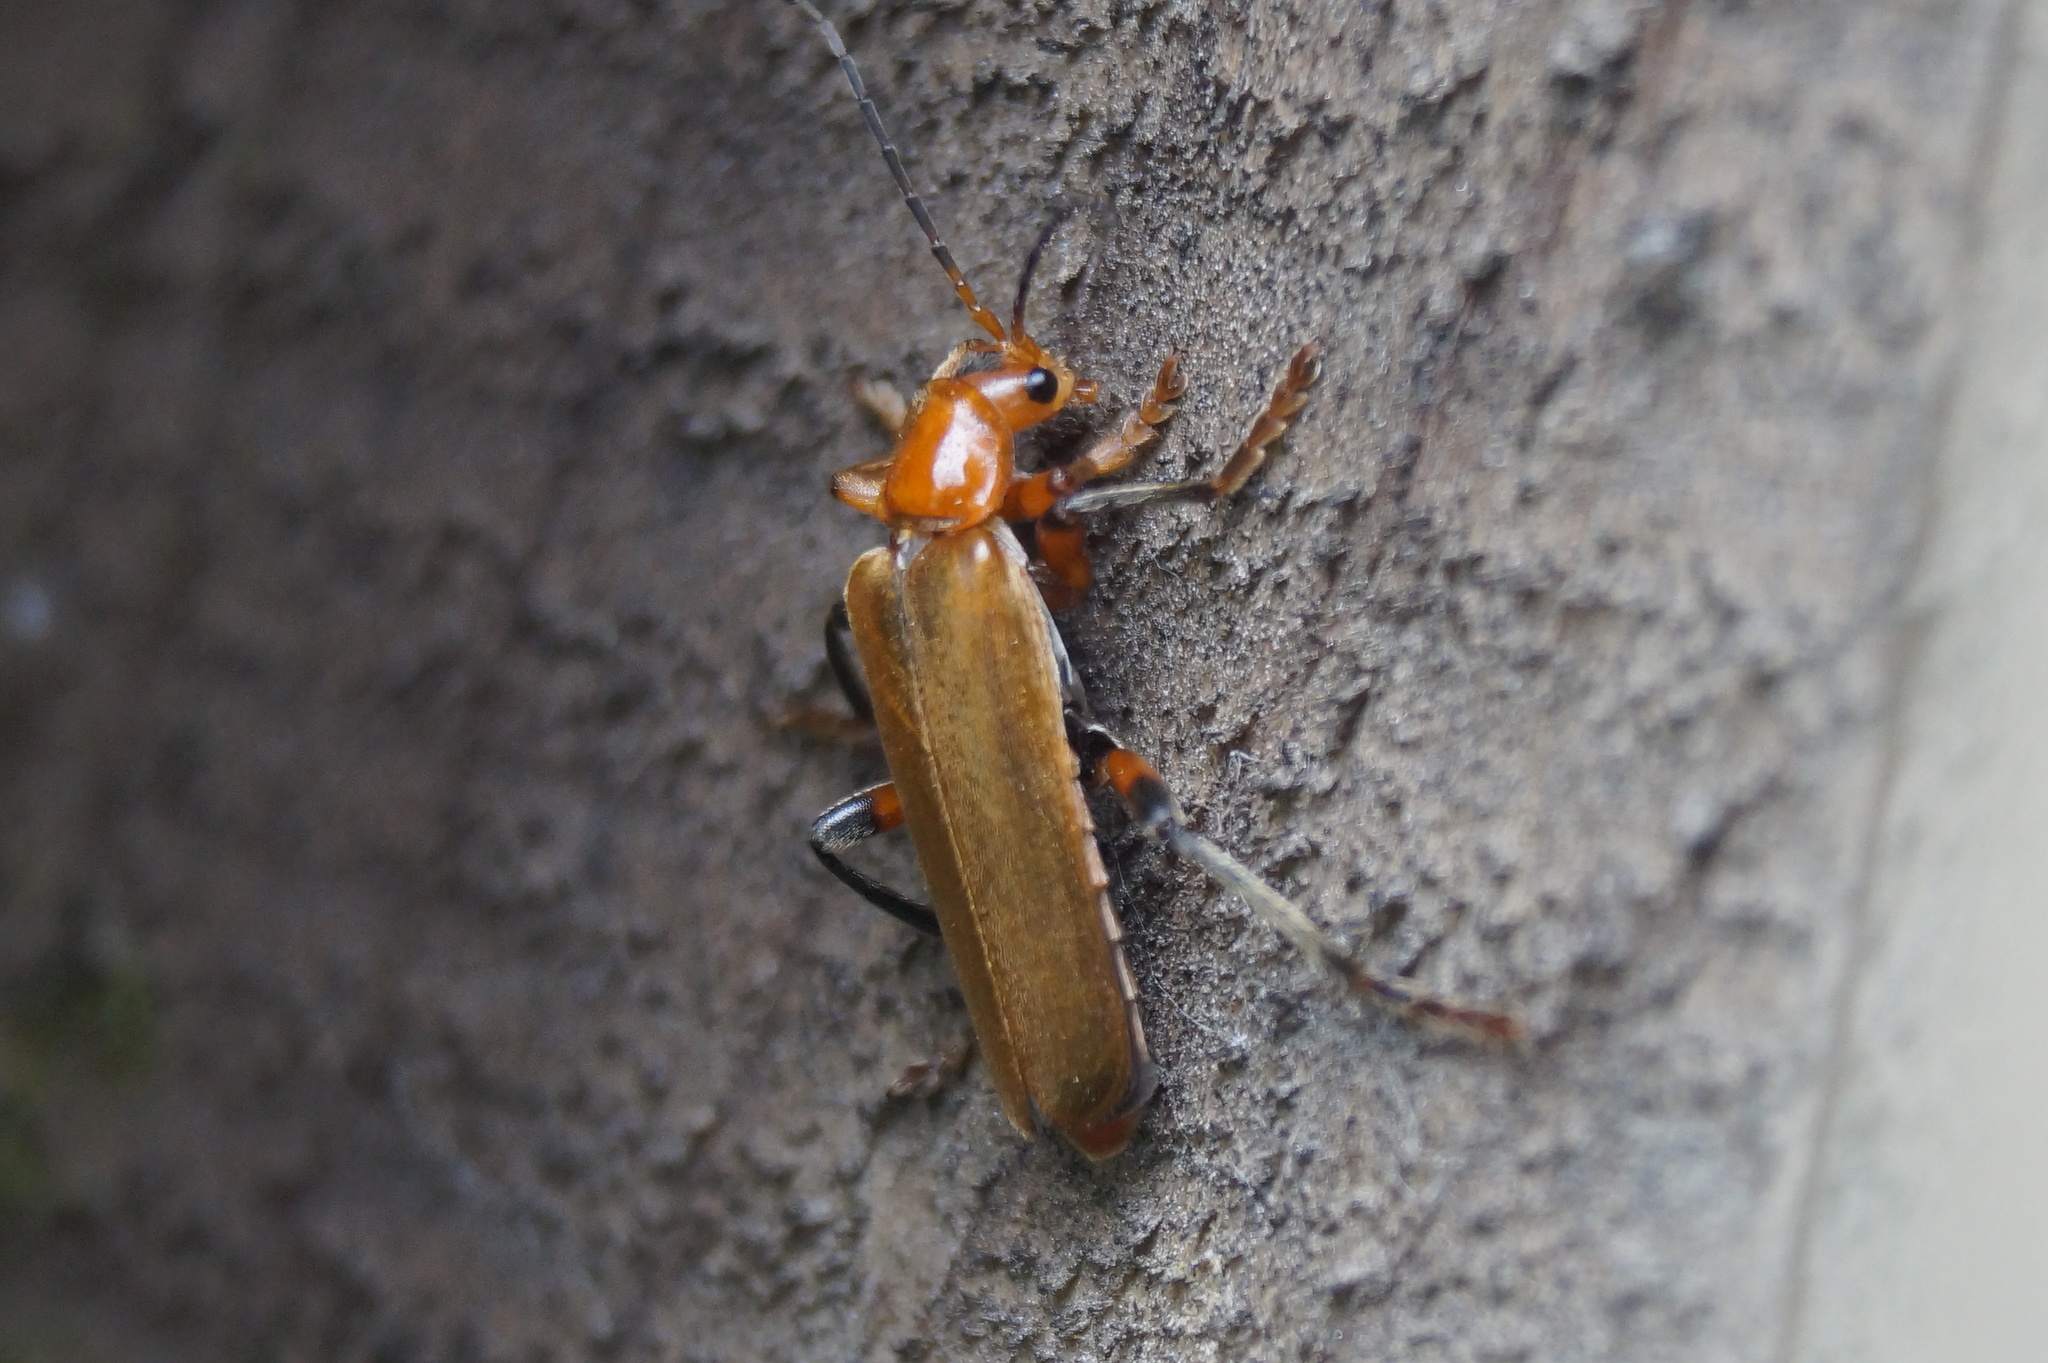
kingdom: Animalia
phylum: Arthropoda
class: Insecta
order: Coleoptera
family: Cantharidae
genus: Cantharis
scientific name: Cantharis livida
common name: Livid soldier beetle
